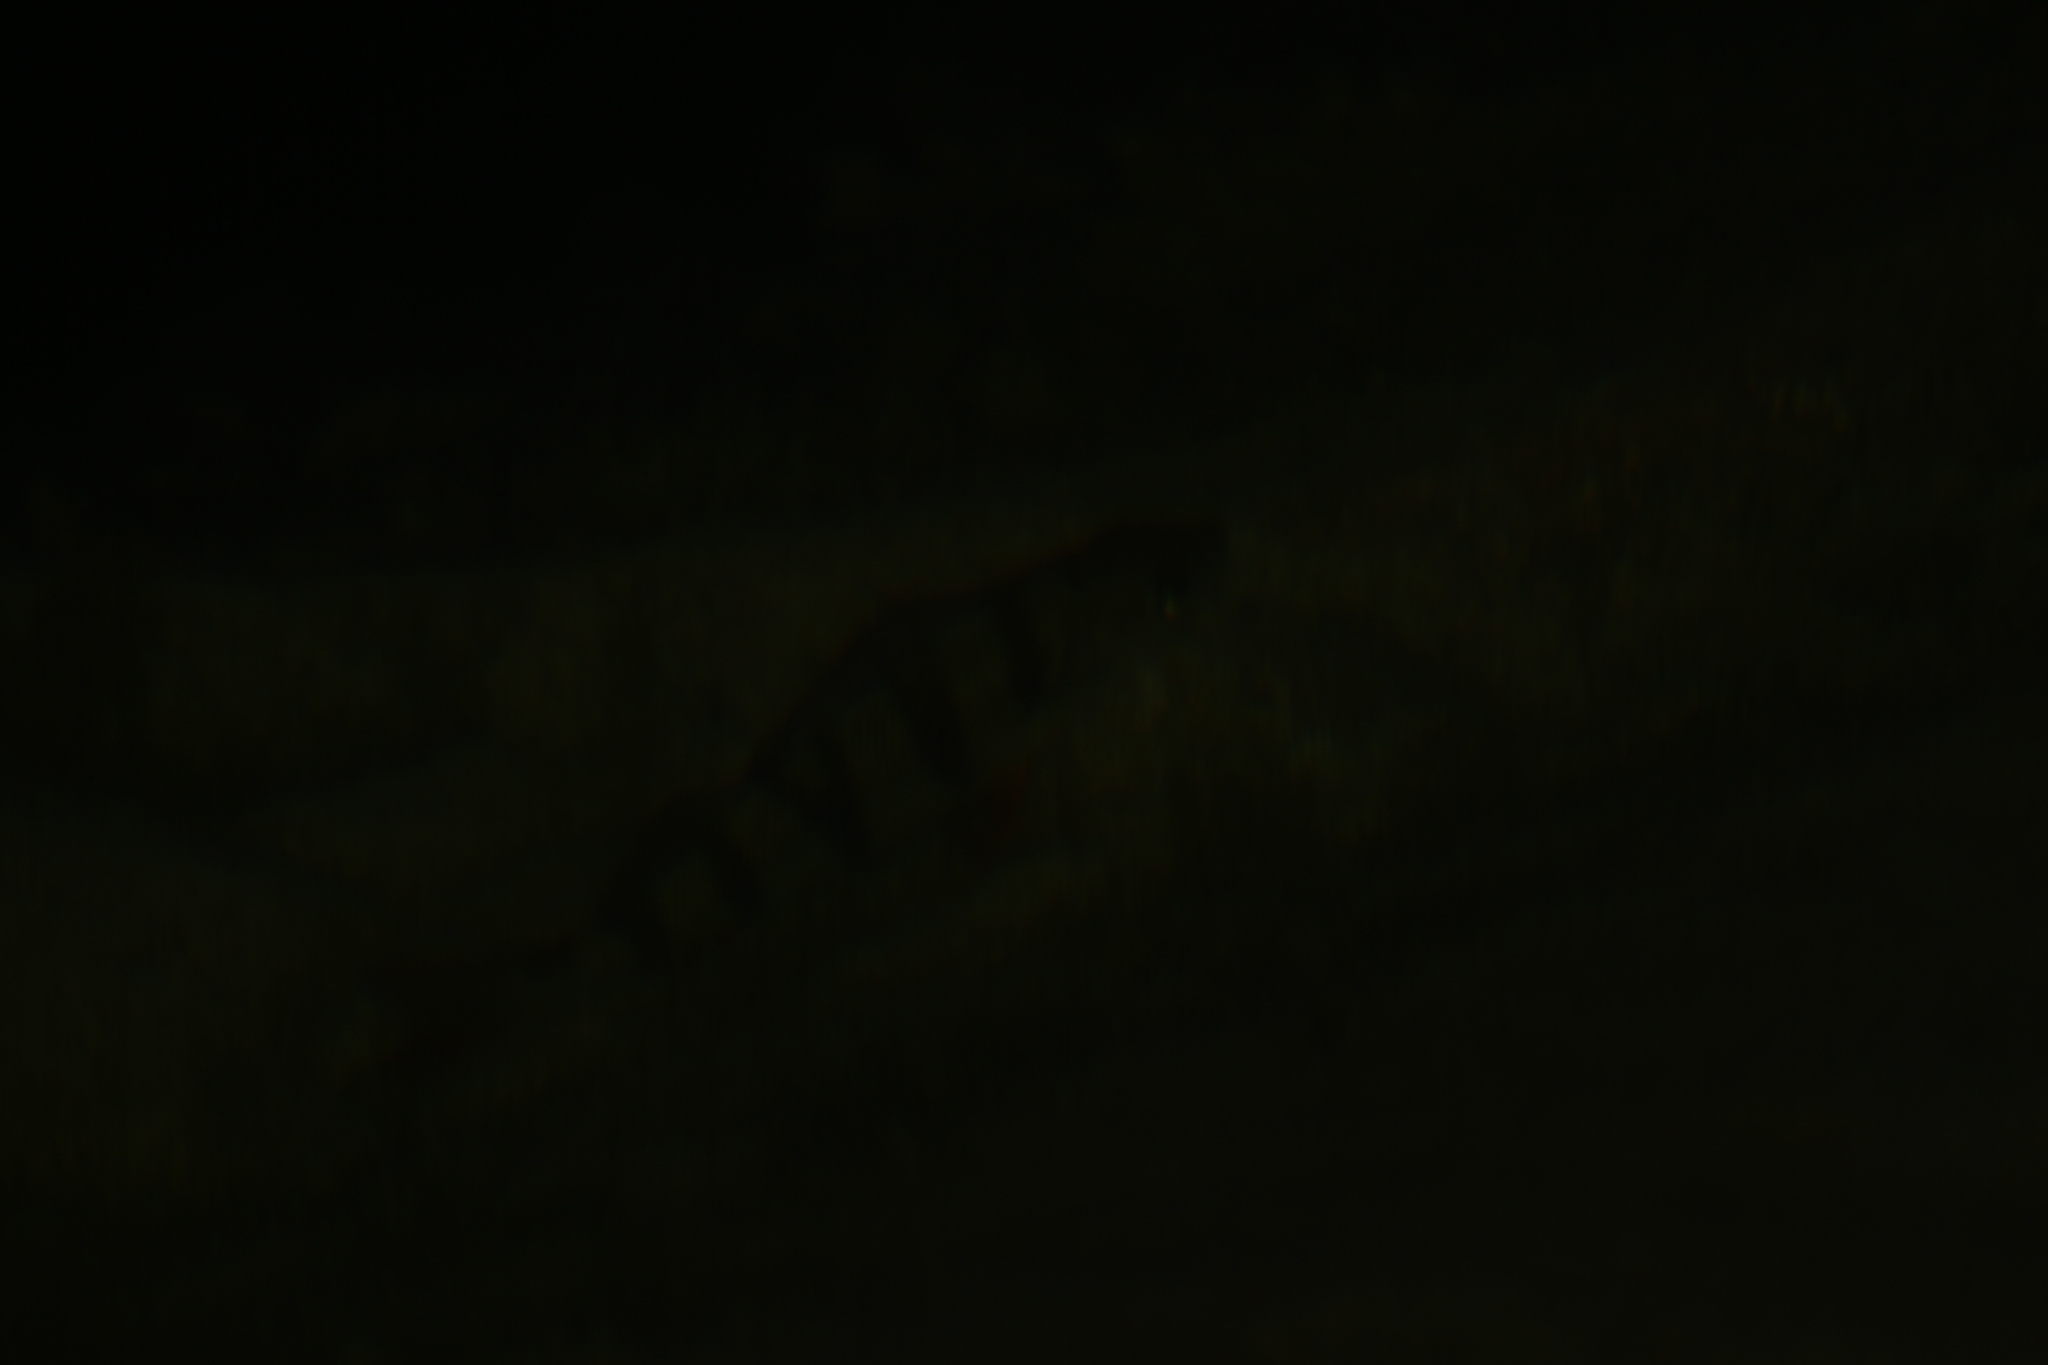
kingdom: Animalia
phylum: Chordata
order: Perciformes
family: Percidae
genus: Perca
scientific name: Perca fluviatilis
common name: Perch
